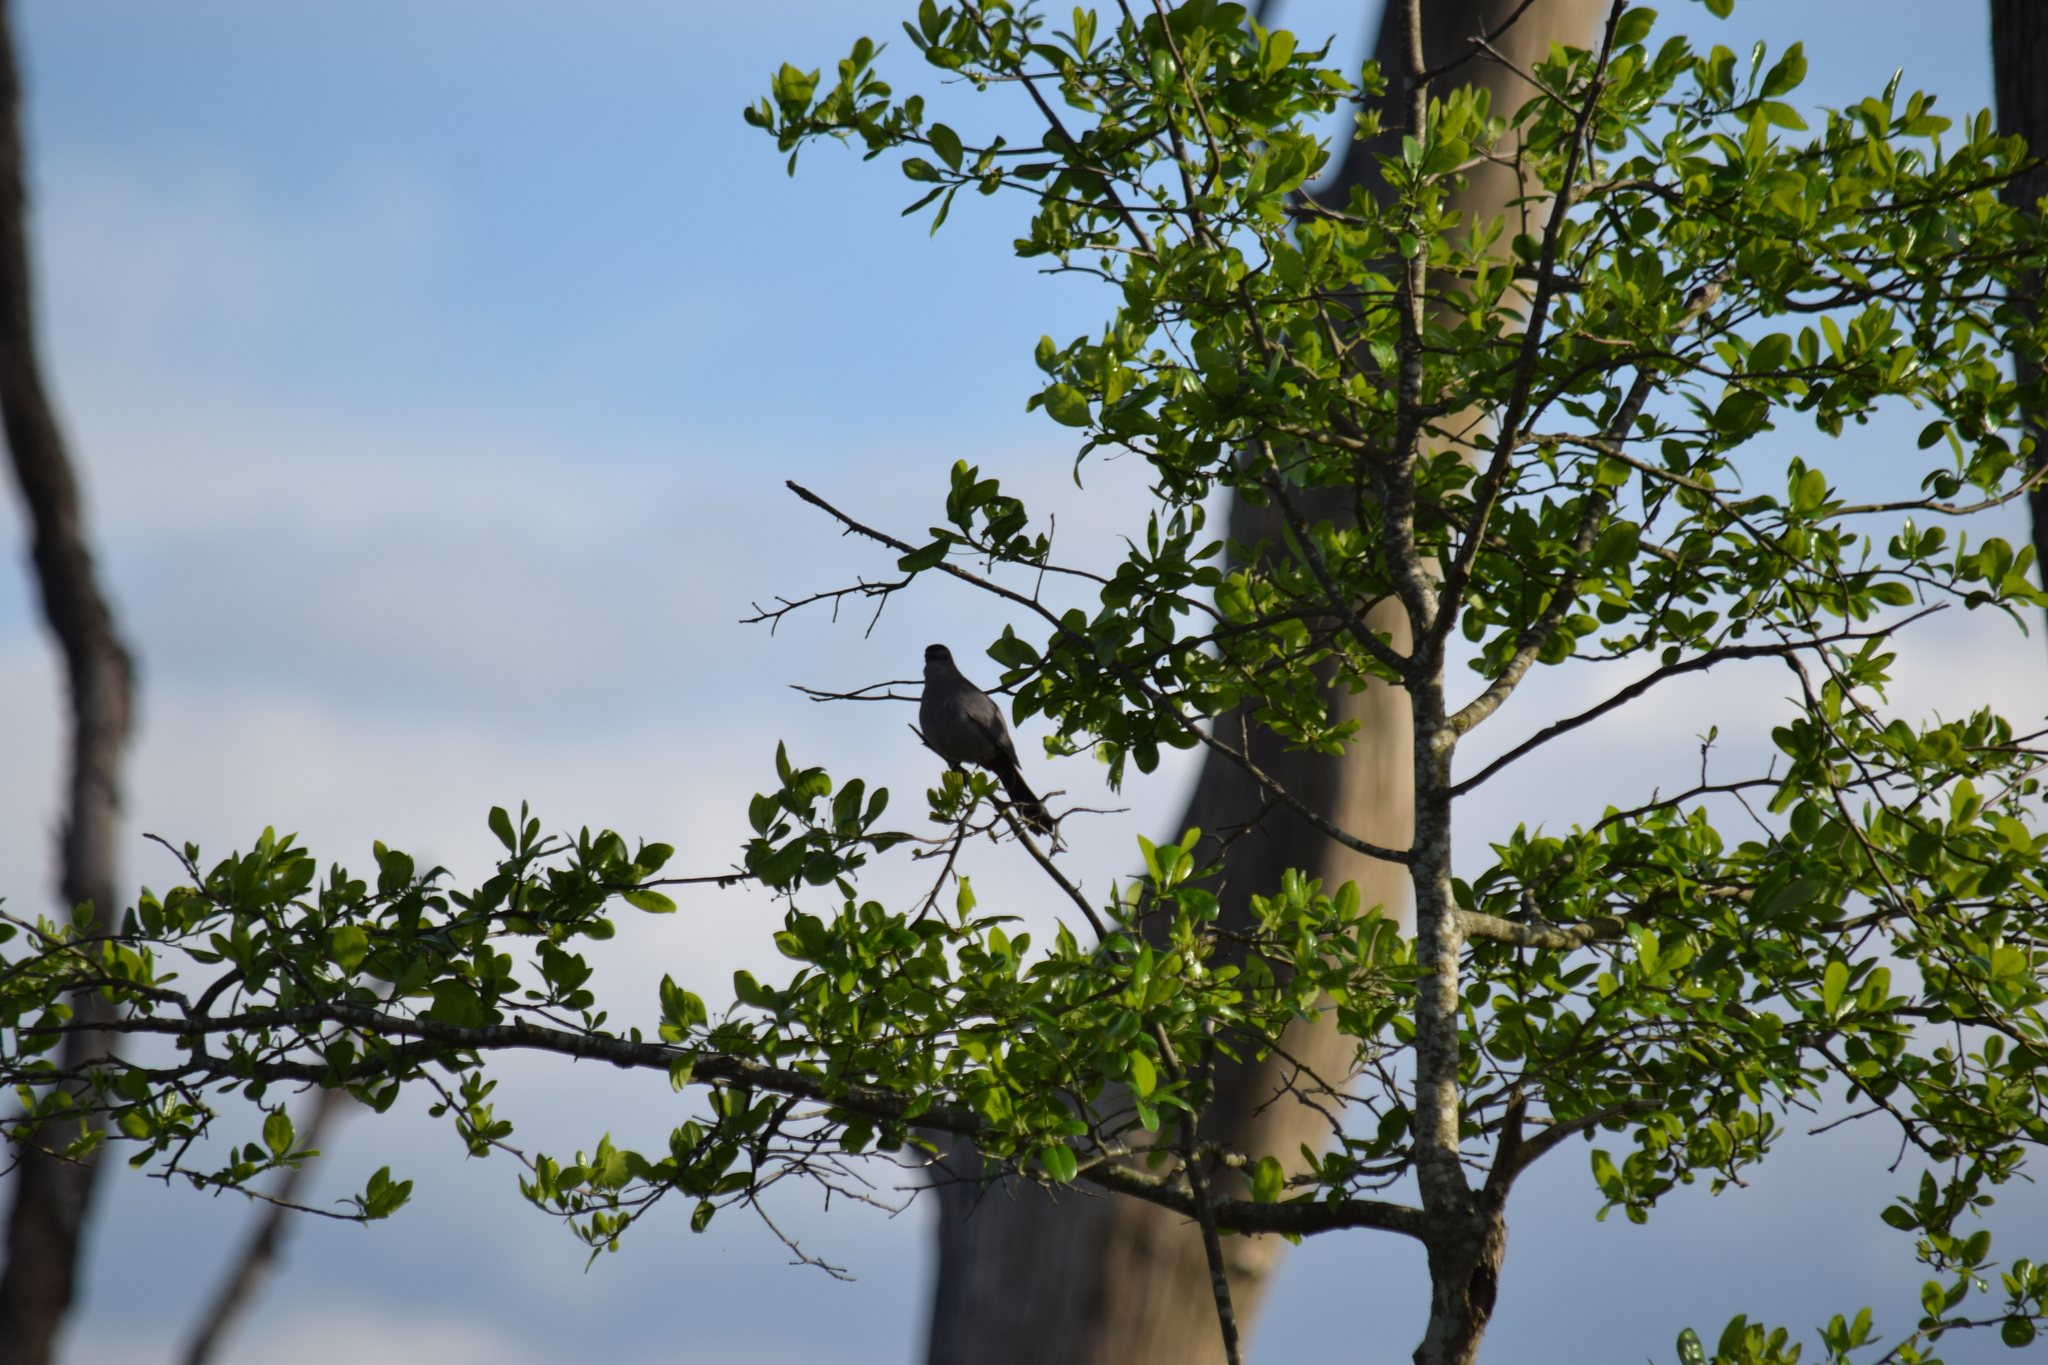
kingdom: Animalia
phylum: Chordata
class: Aves
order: Passeriformes
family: Mimidae
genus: Dumetella
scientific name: Dumetella carolinensis
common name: Gray catbird
